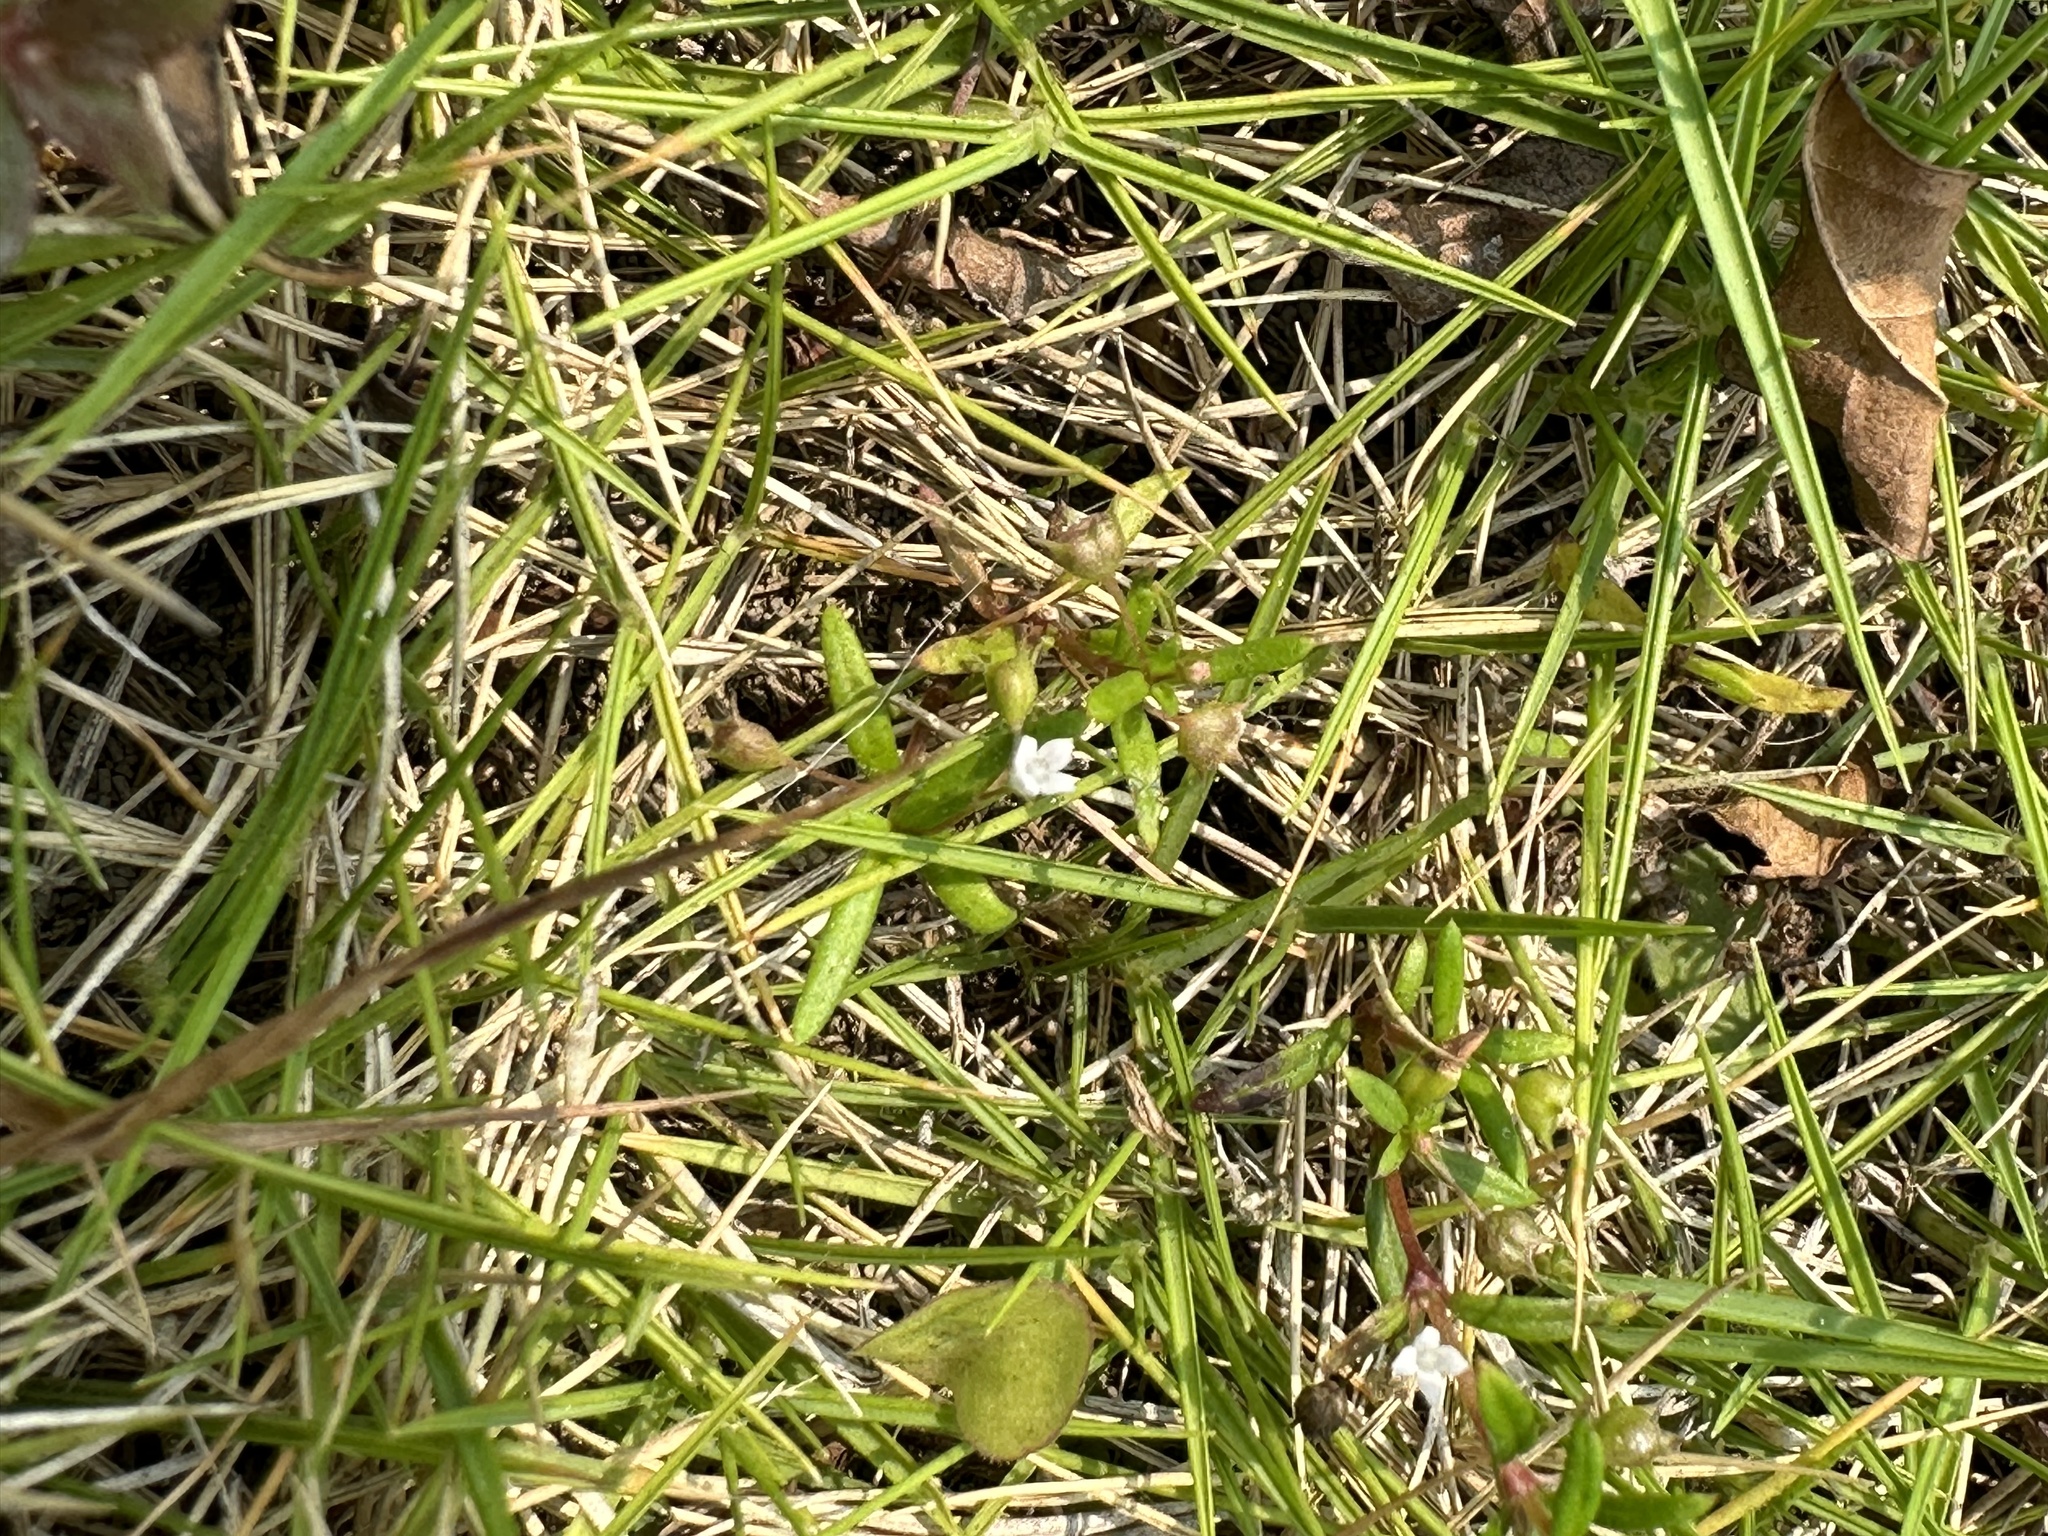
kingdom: Plantae
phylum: Tracheophyta
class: Magnoliopsida
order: Gentianales
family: Rubiaceae
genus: Oldenlandia
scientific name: Oldenlandia corymbosa
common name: Flat-top mille graines
